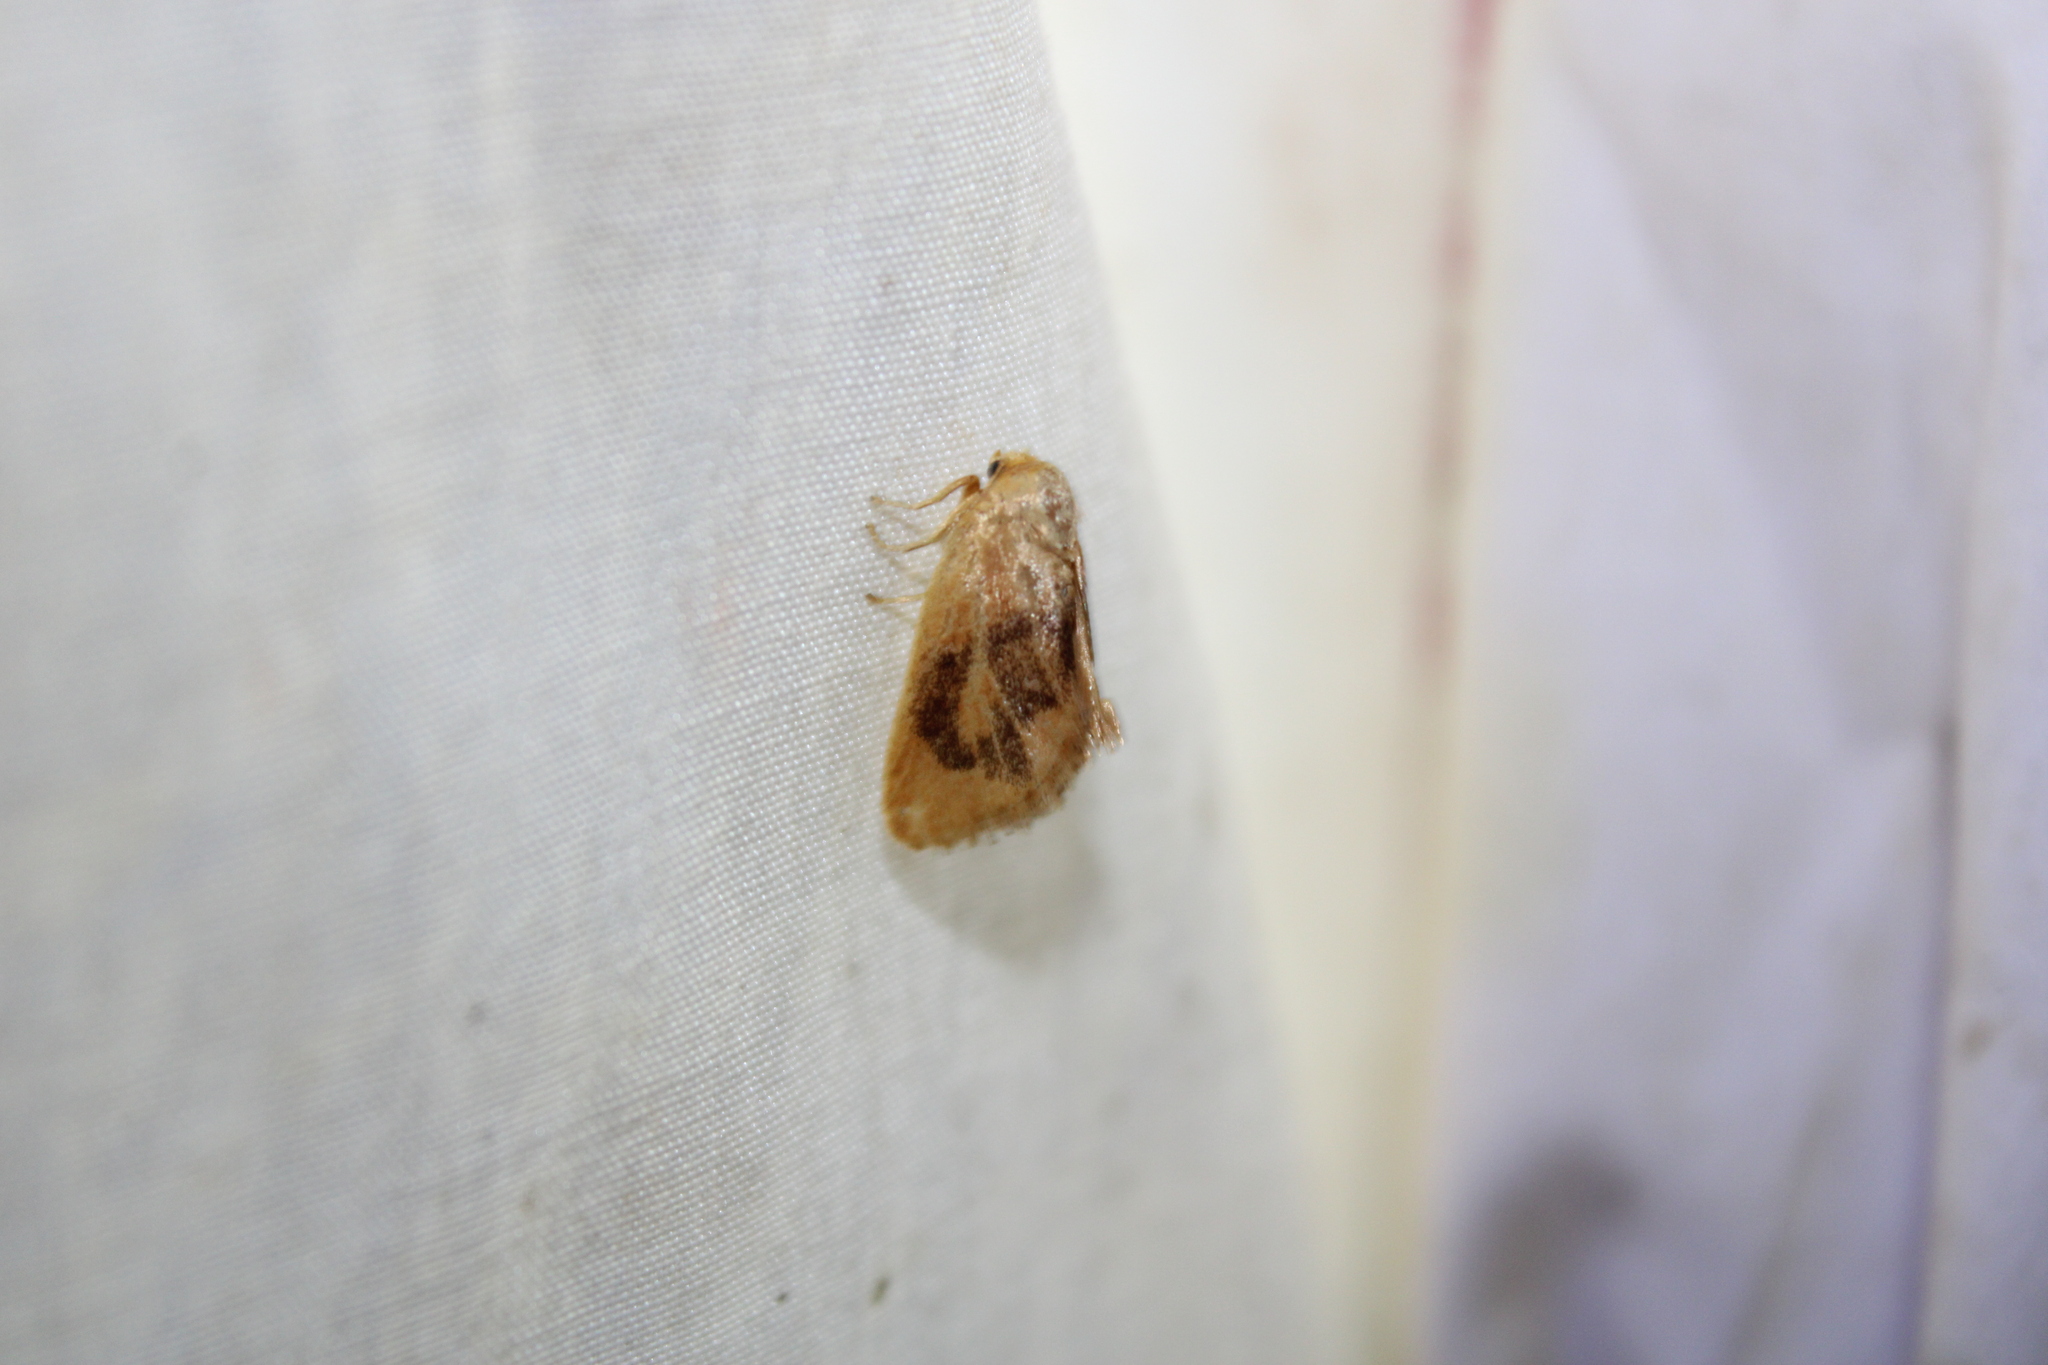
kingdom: Animalia
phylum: Arthropoda
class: Insecta
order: Lepidoptera
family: Limacodidae
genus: Tortricidia
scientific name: Tortricidia flexuosa
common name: Abbreviated button slug moth
